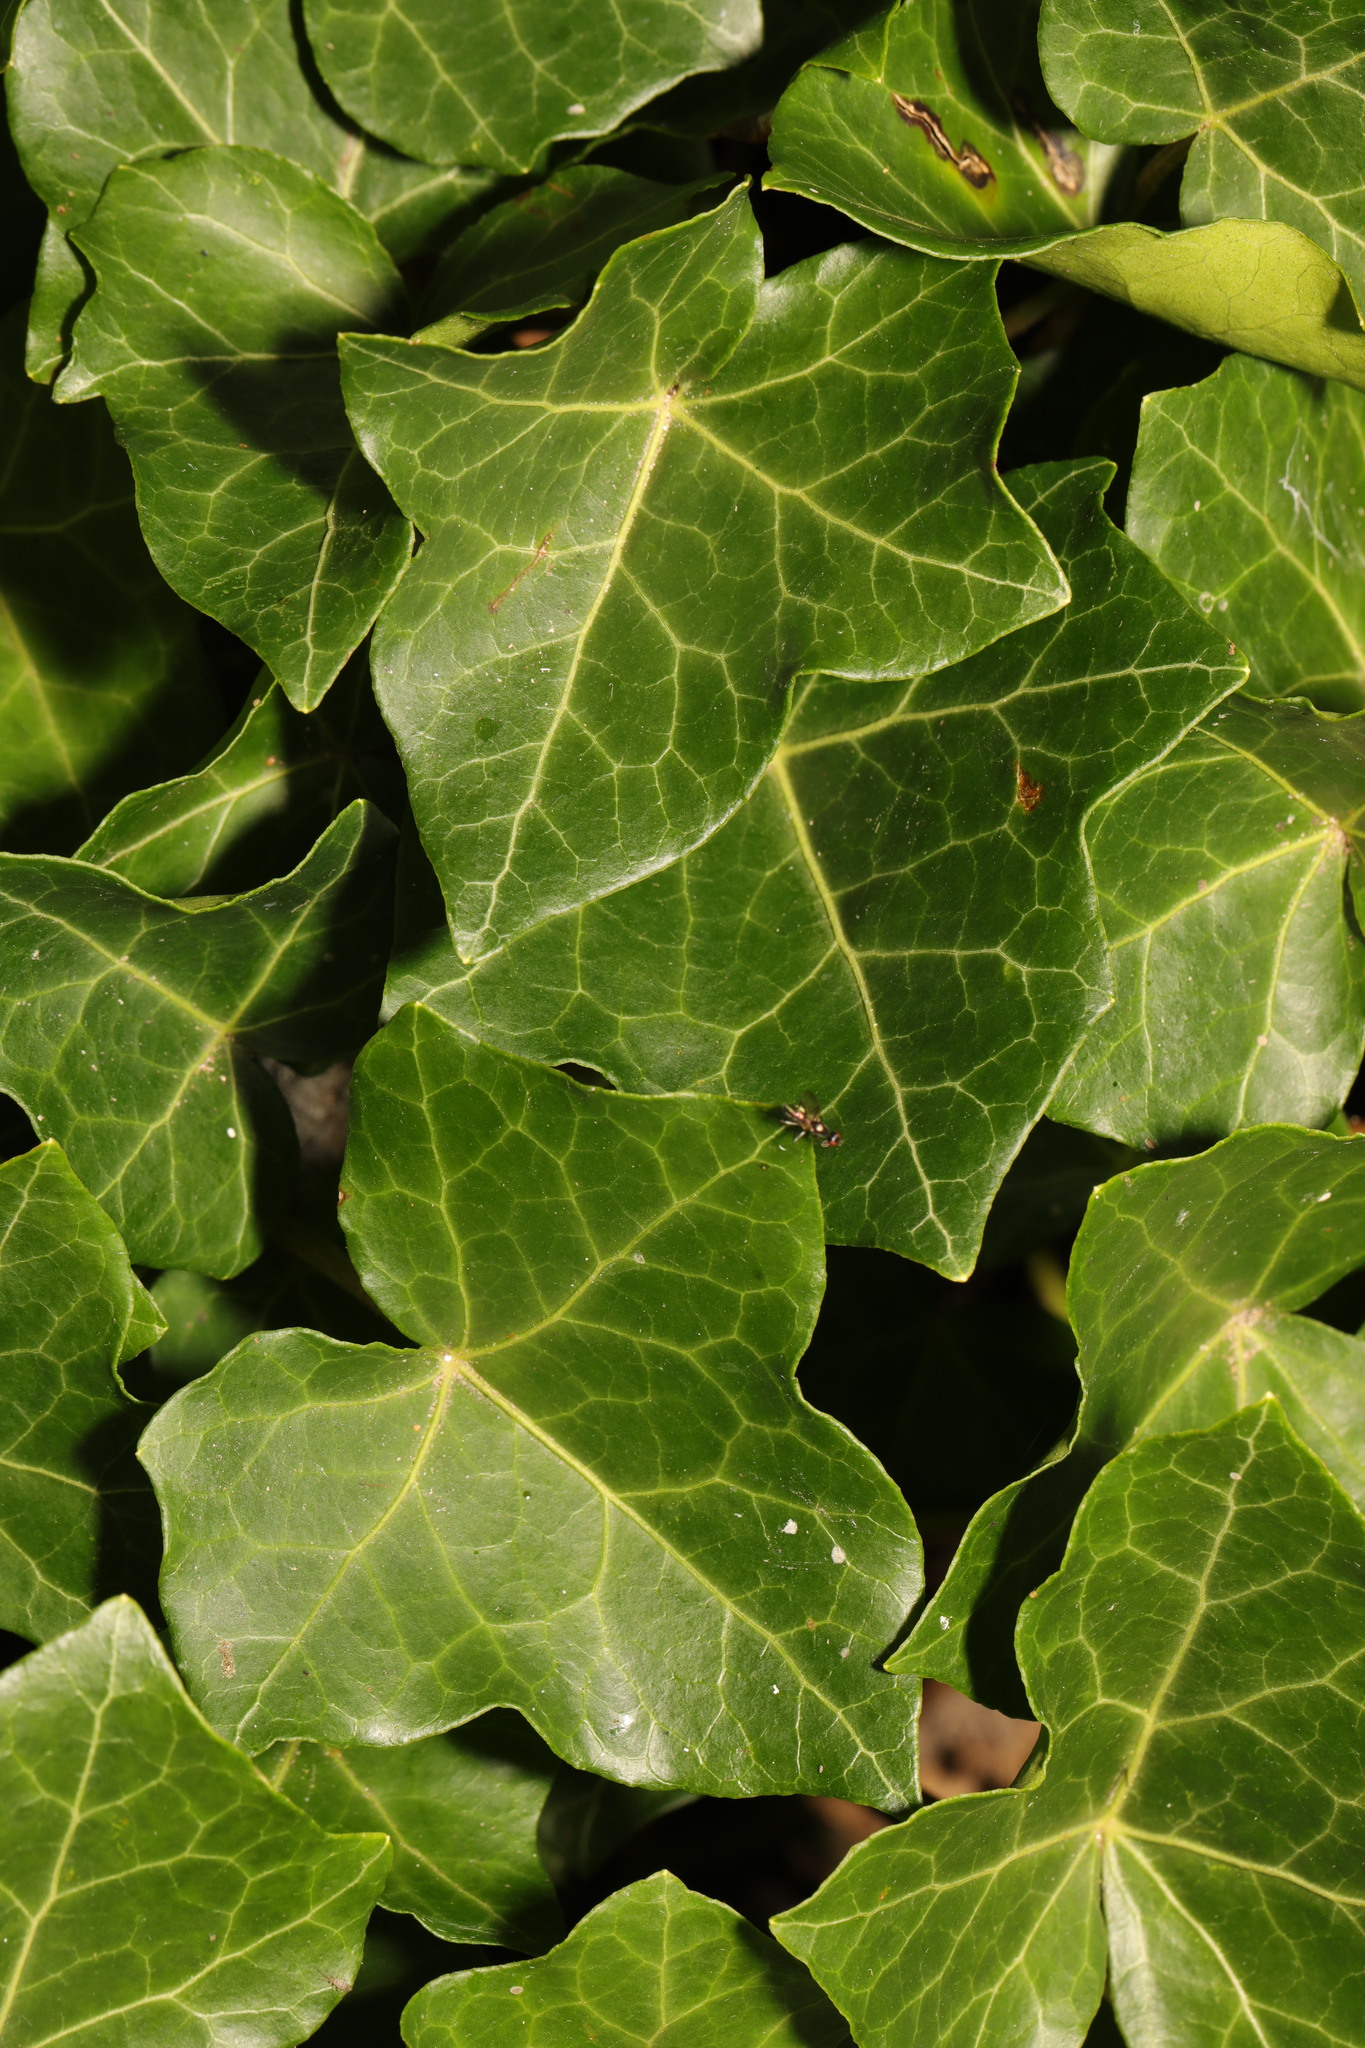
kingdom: Plantae
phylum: Tracheophyta
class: Magnoliopsida
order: Apiales
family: Araliaceae
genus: Hedera
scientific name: Hedera helix
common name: Ivy
